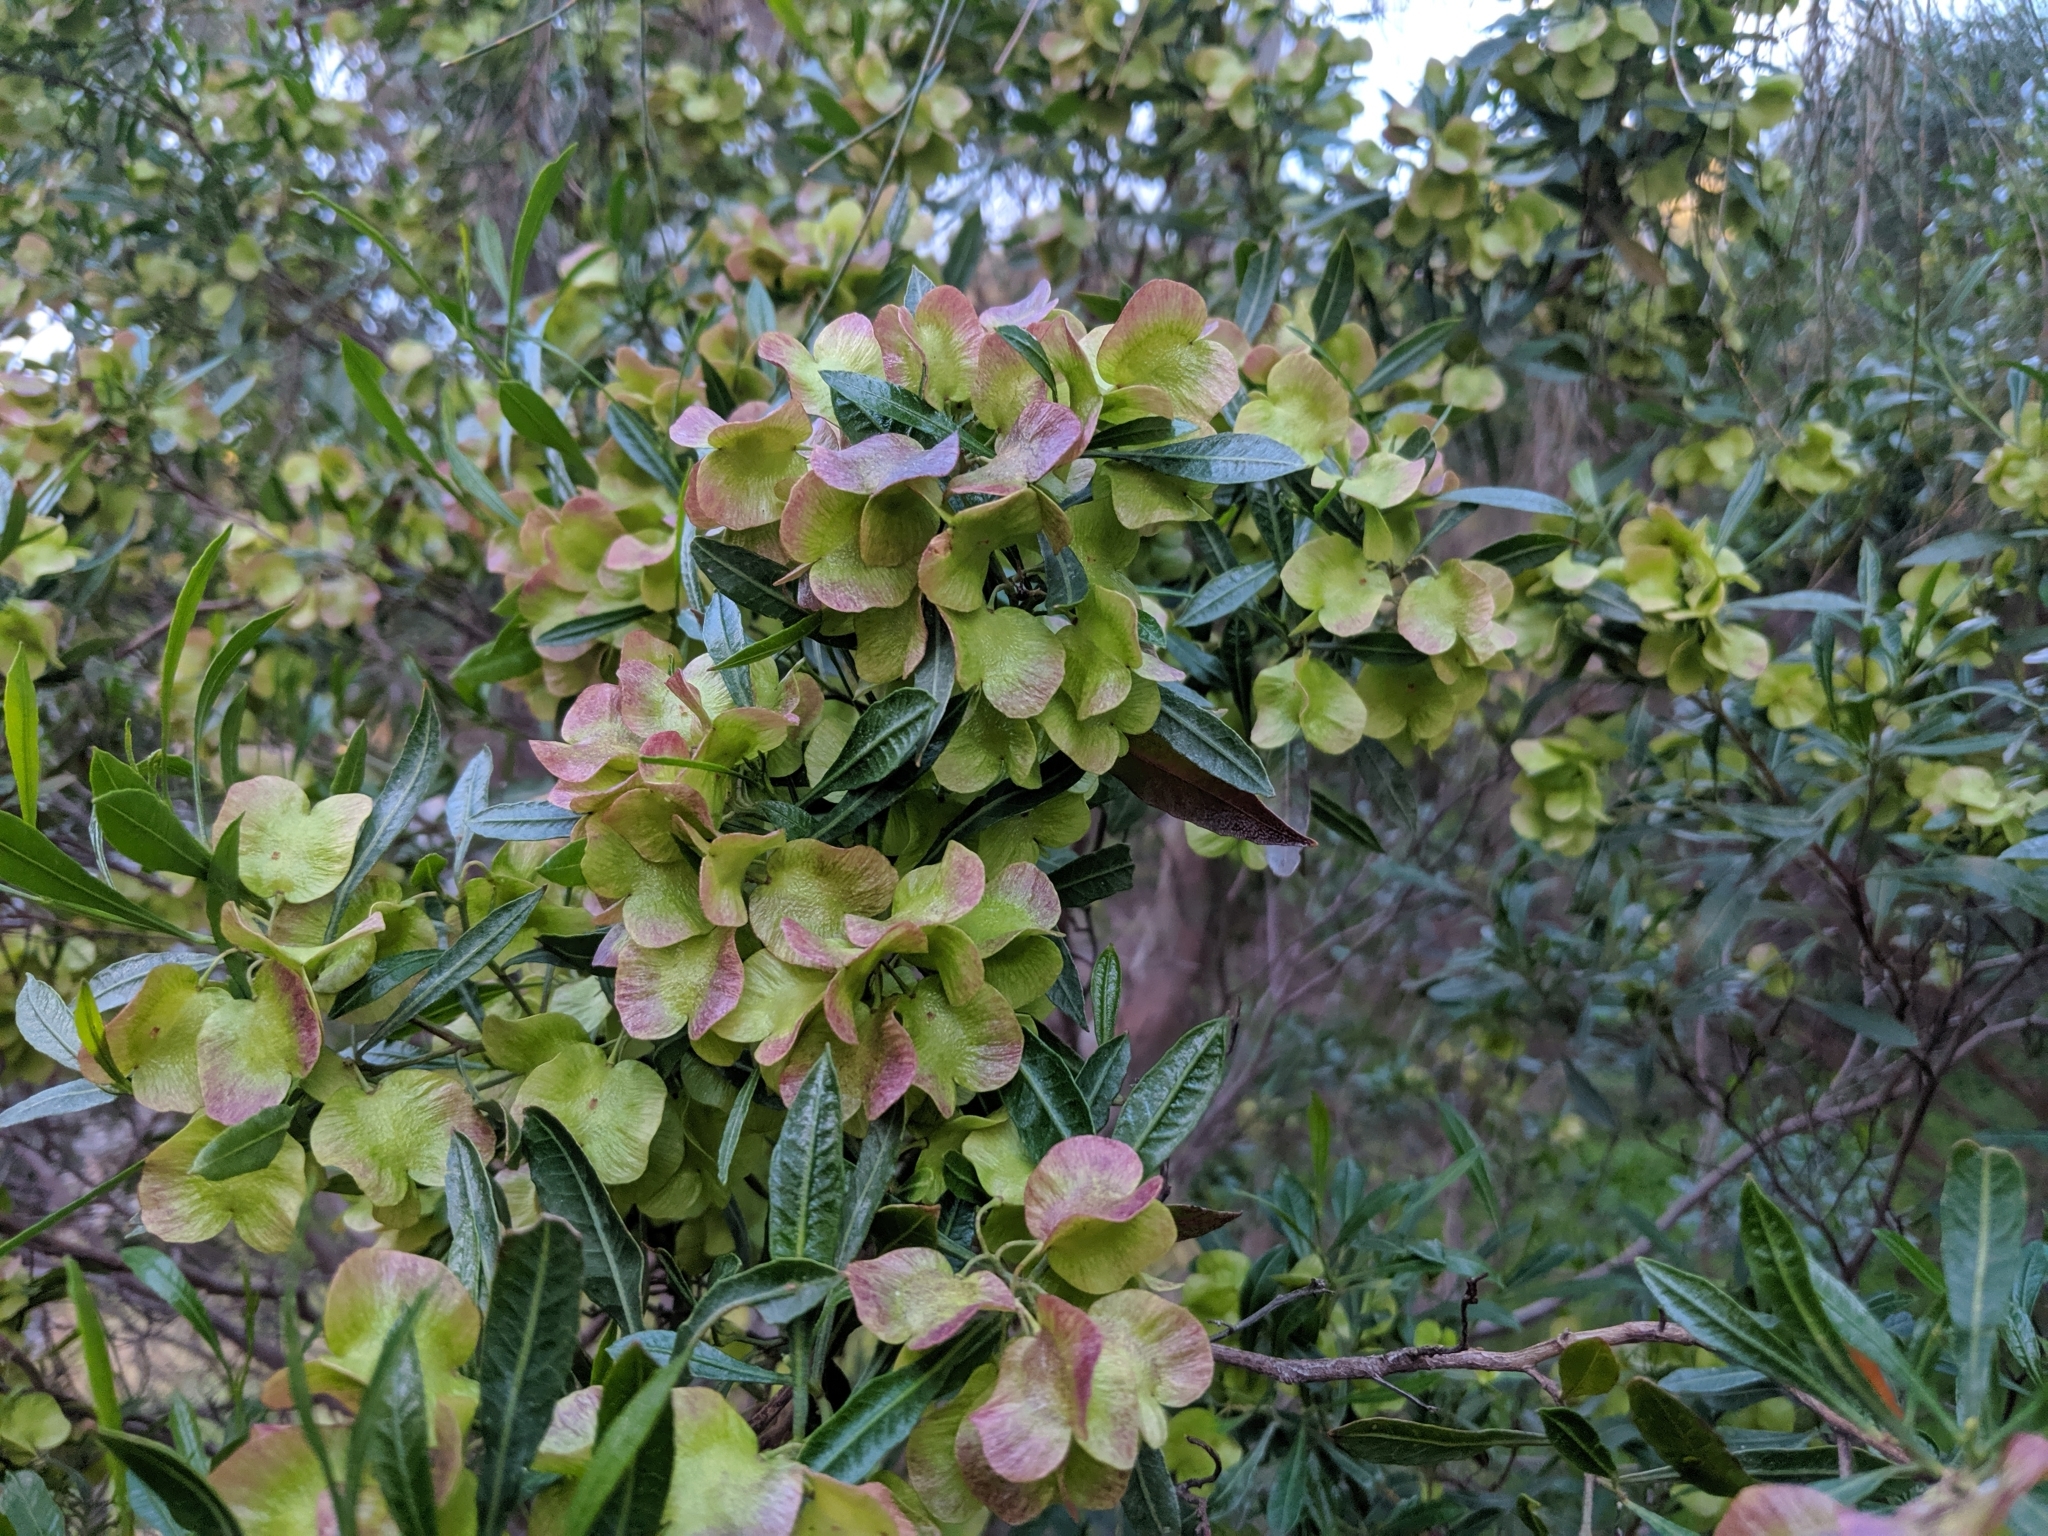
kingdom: Plantae
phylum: Tracheophyta
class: Magnoliopsida
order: Sapindales
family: Sapindaceae
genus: Dodonaea
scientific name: Dodonaea viscosa
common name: Hopbush
